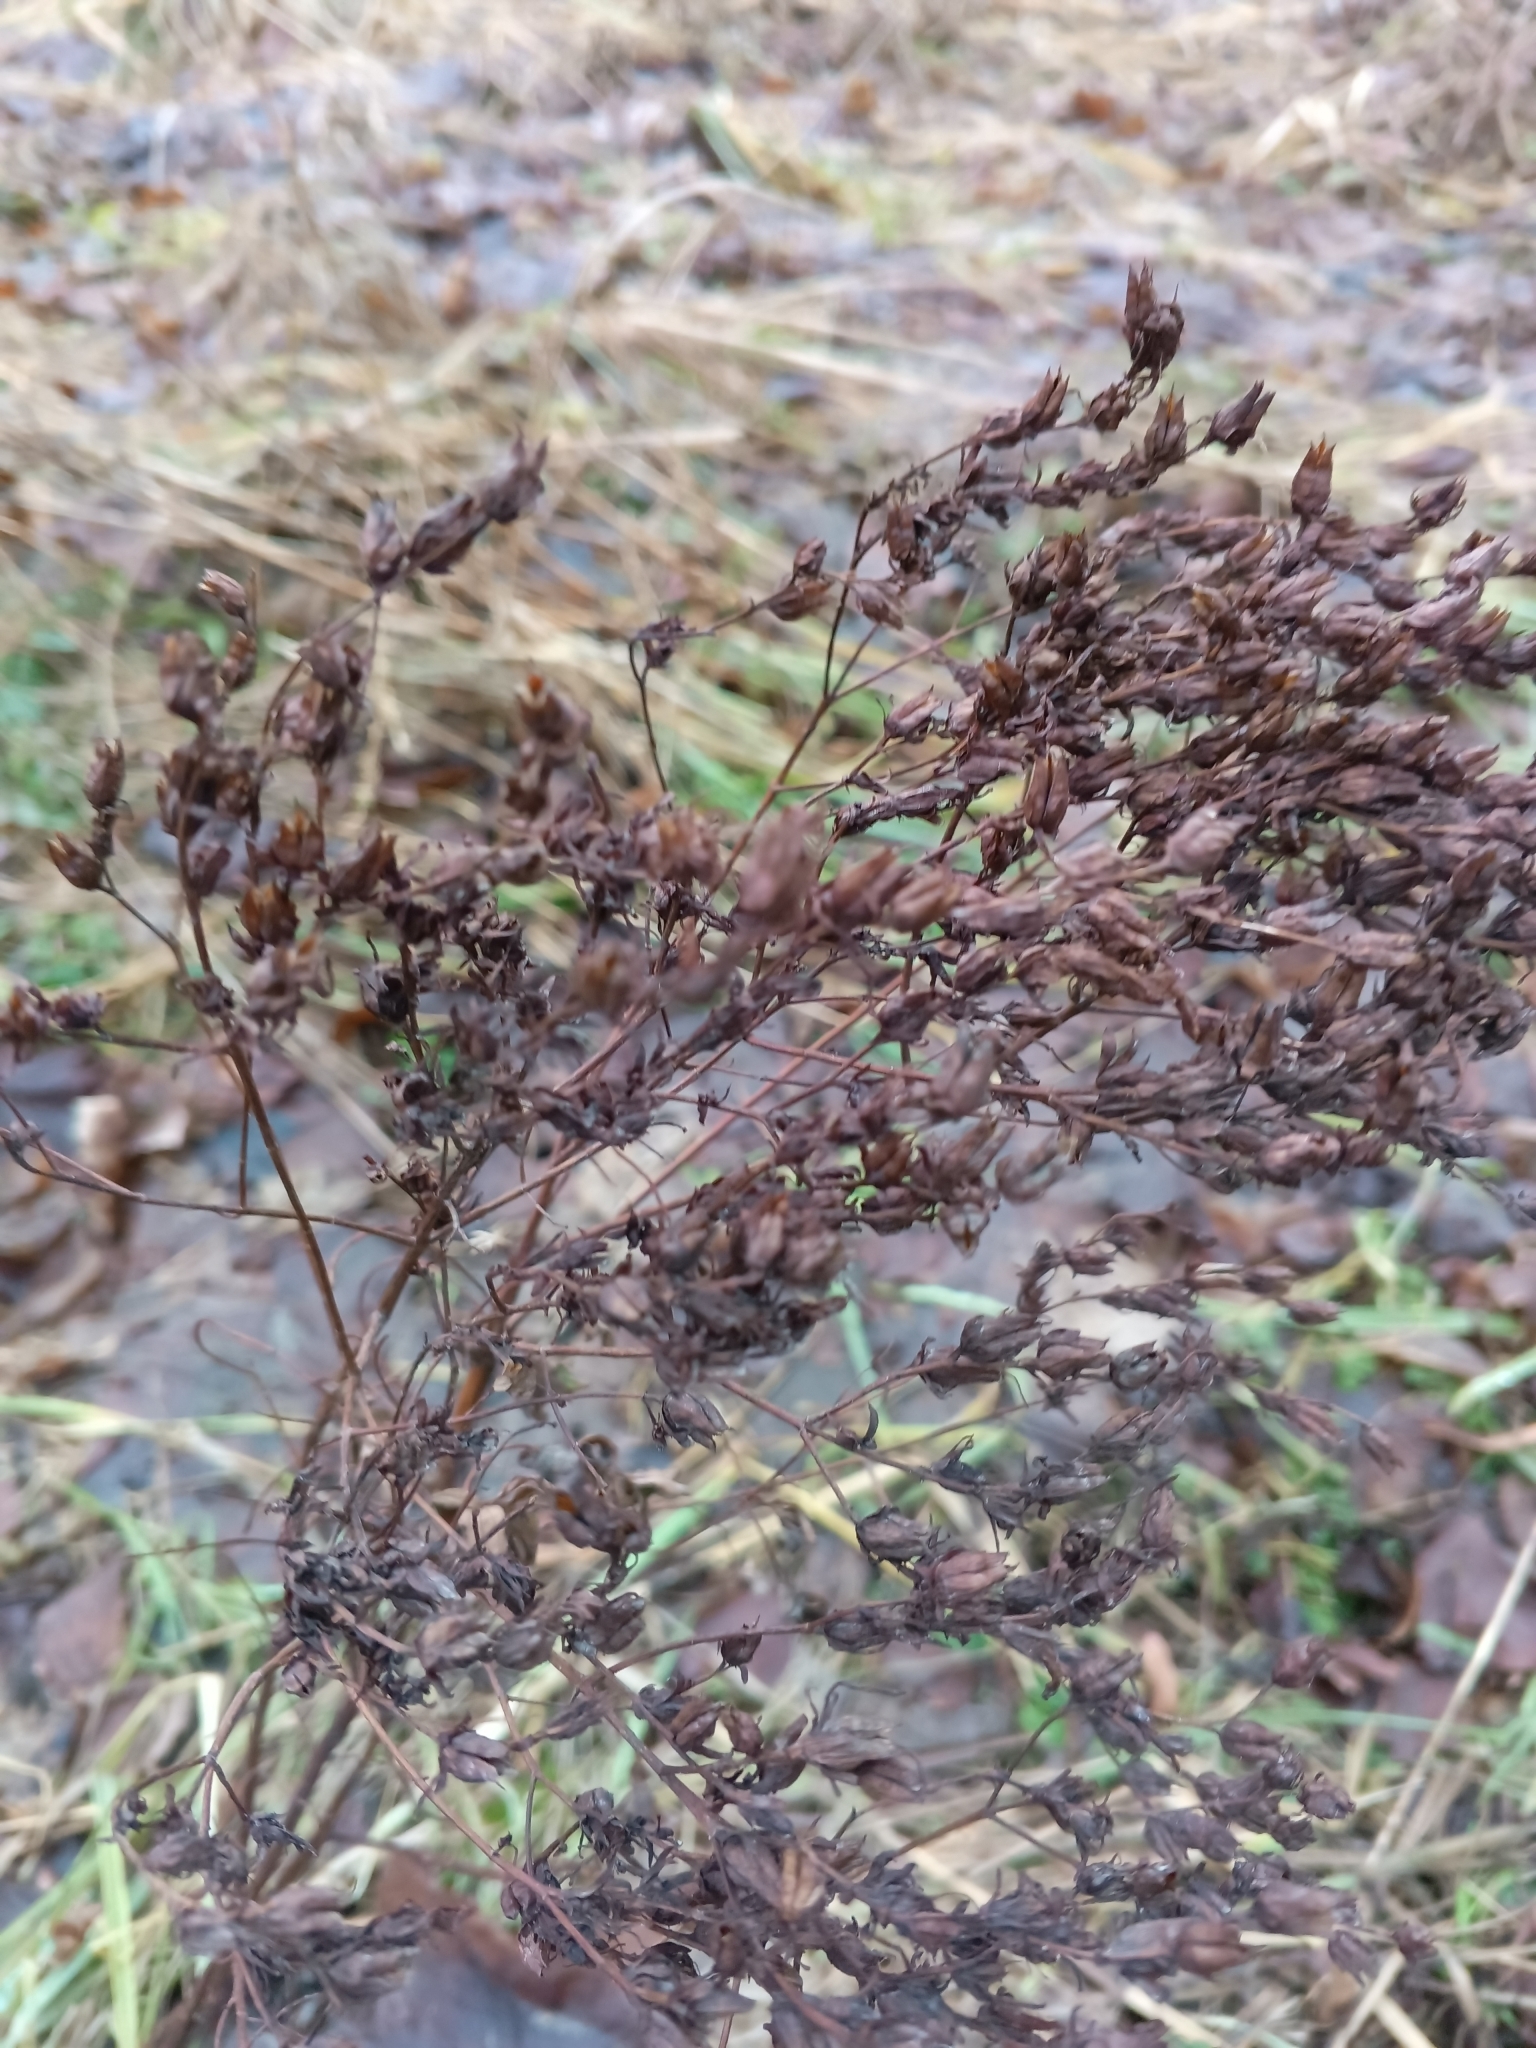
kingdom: Plantae
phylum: Tracheophyta
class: Magnoliopsida
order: Malpighiales
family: Hypericaceae
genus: Hypericum
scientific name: Hypericum perforatum
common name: Common st. johnswort
